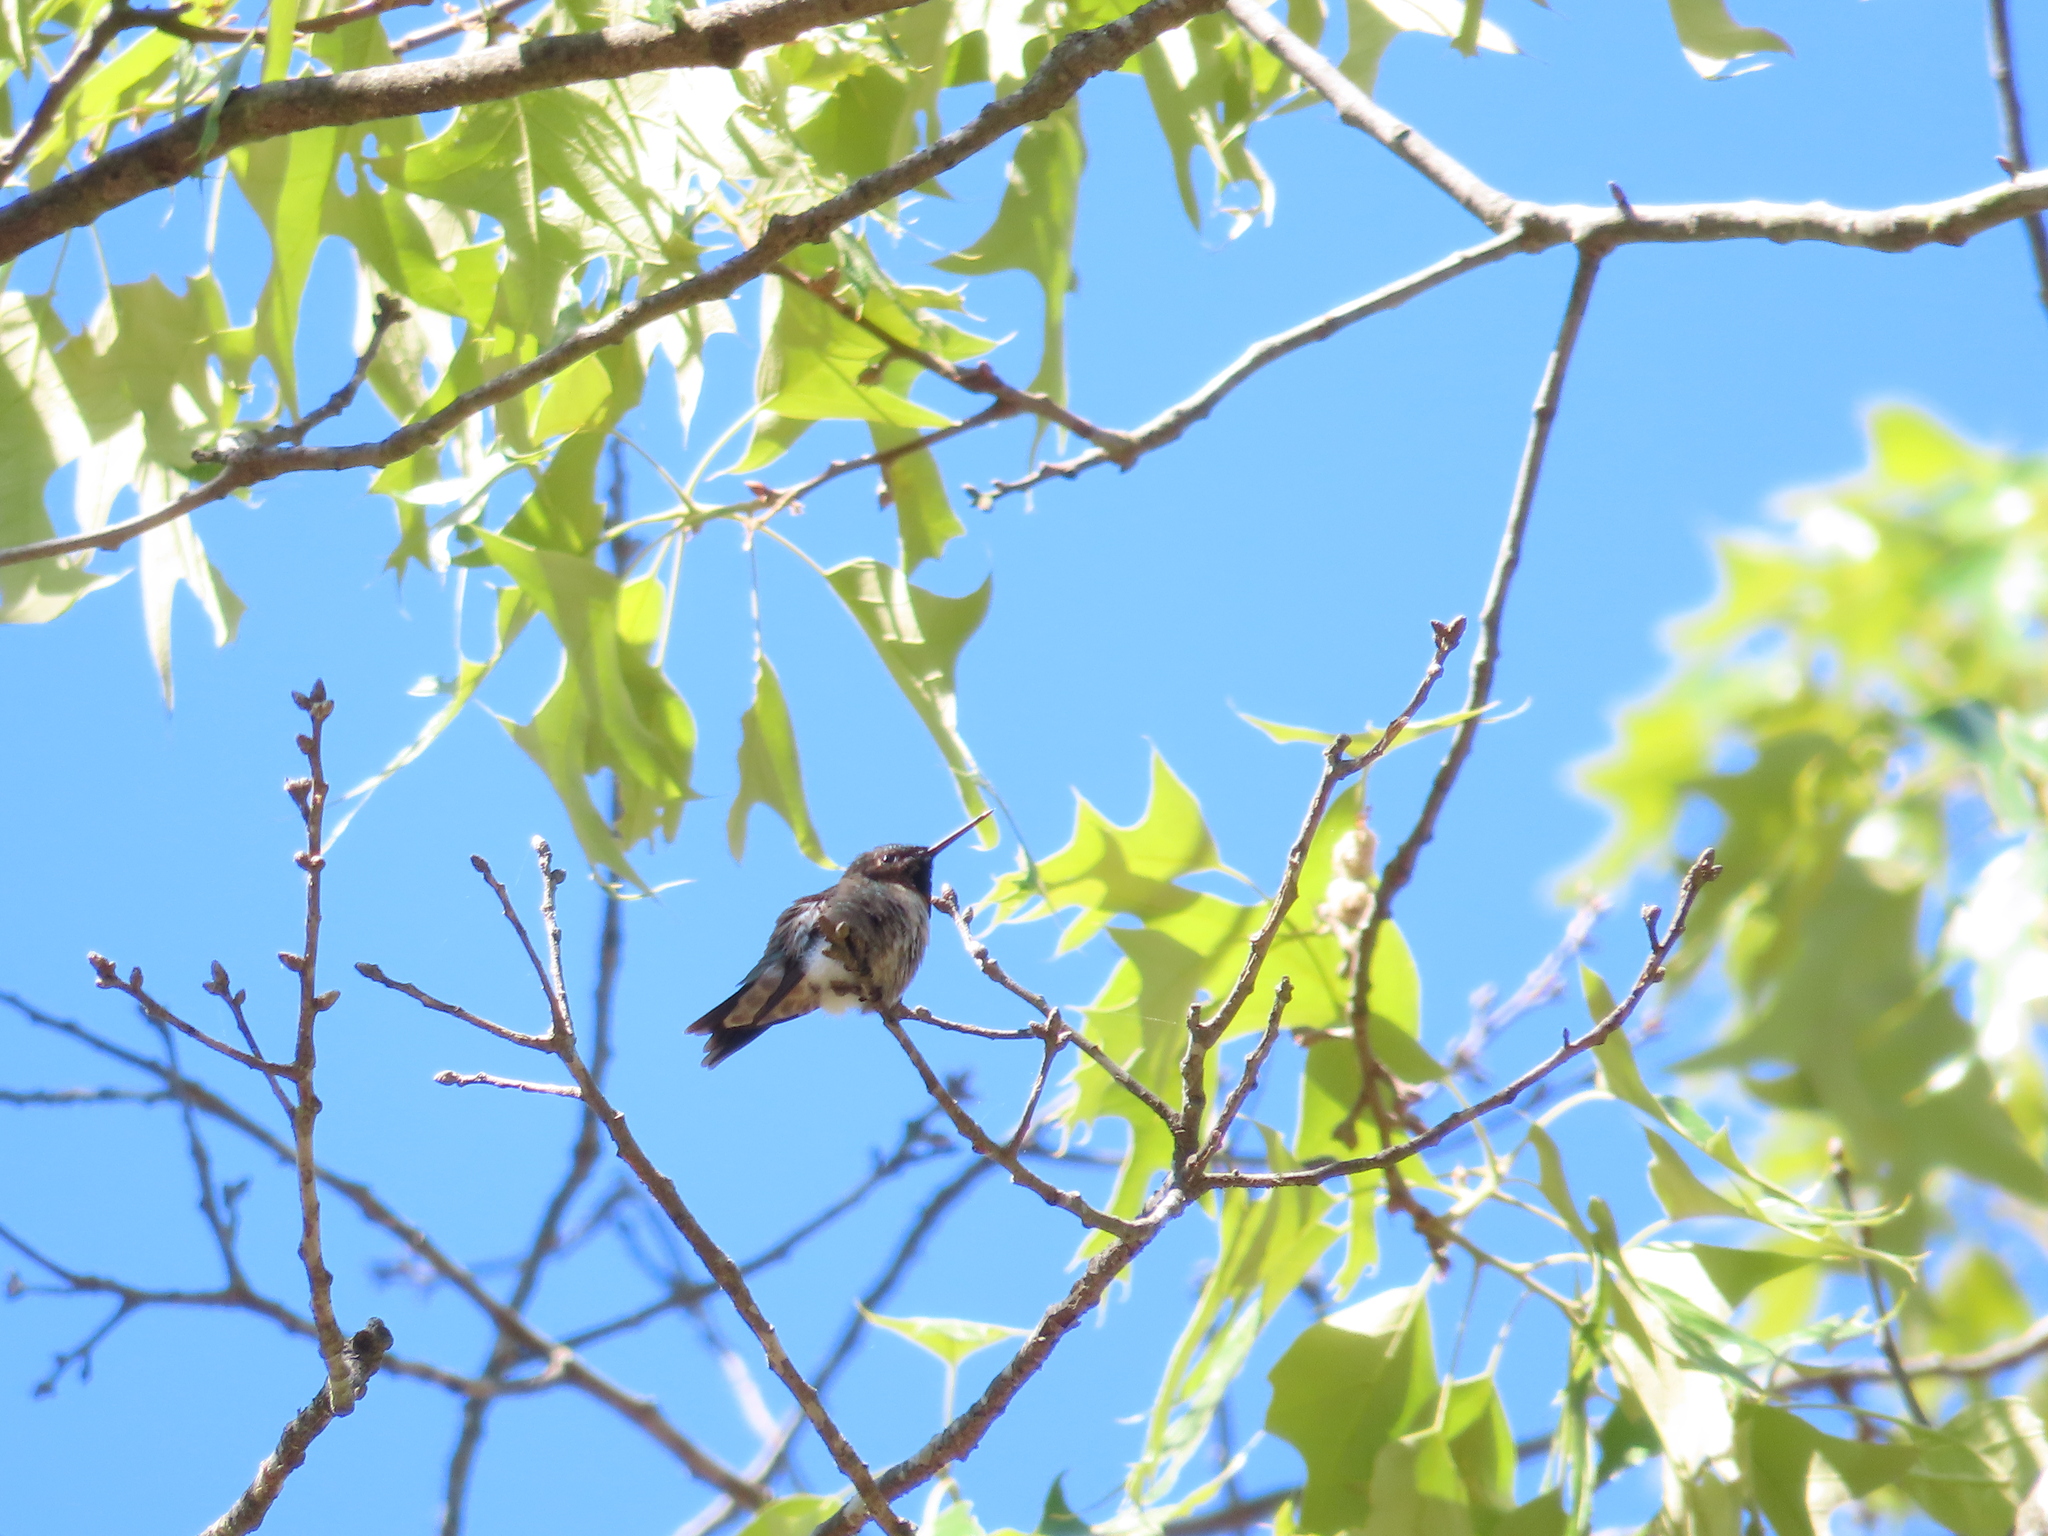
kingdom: Animalia
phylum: Chordata
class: Aves
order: Apodiformes
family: Trochilidae
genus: Archilochus
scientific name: Archilochus colubris
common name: Ruby-throated hummingbird
